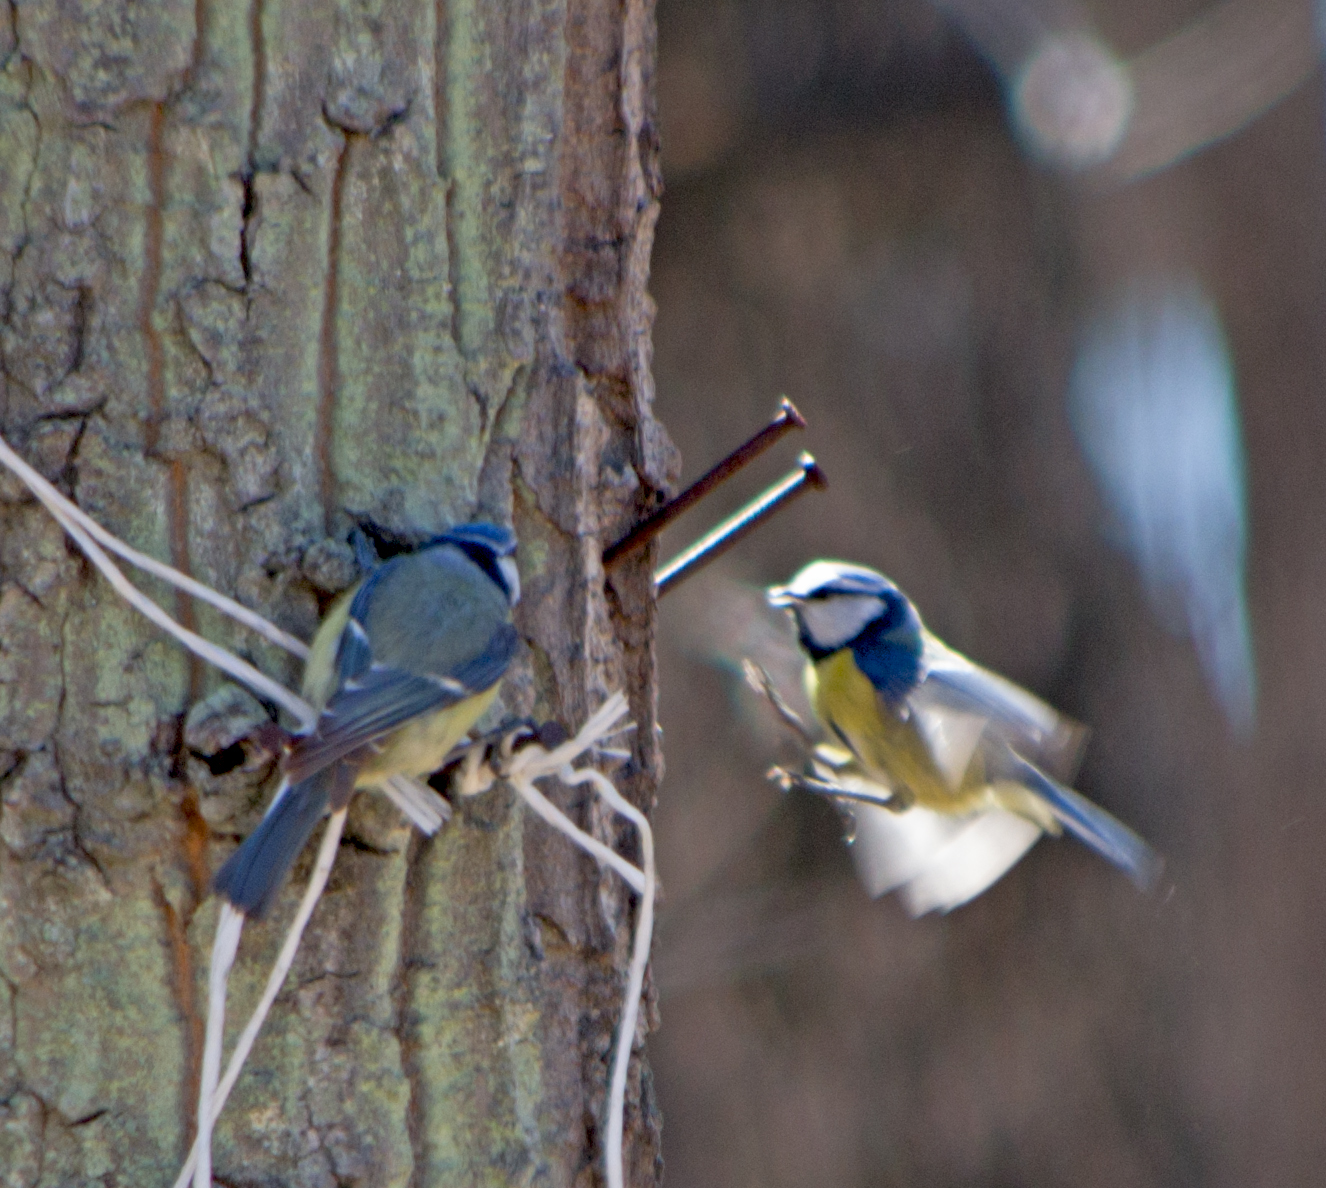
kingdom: Animalia
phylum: Chordata
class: Aves
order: Passeriformes
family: Paridae
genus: Cyanistes
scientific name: Cyanistes caeruleus
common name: Eurasian blue tit
